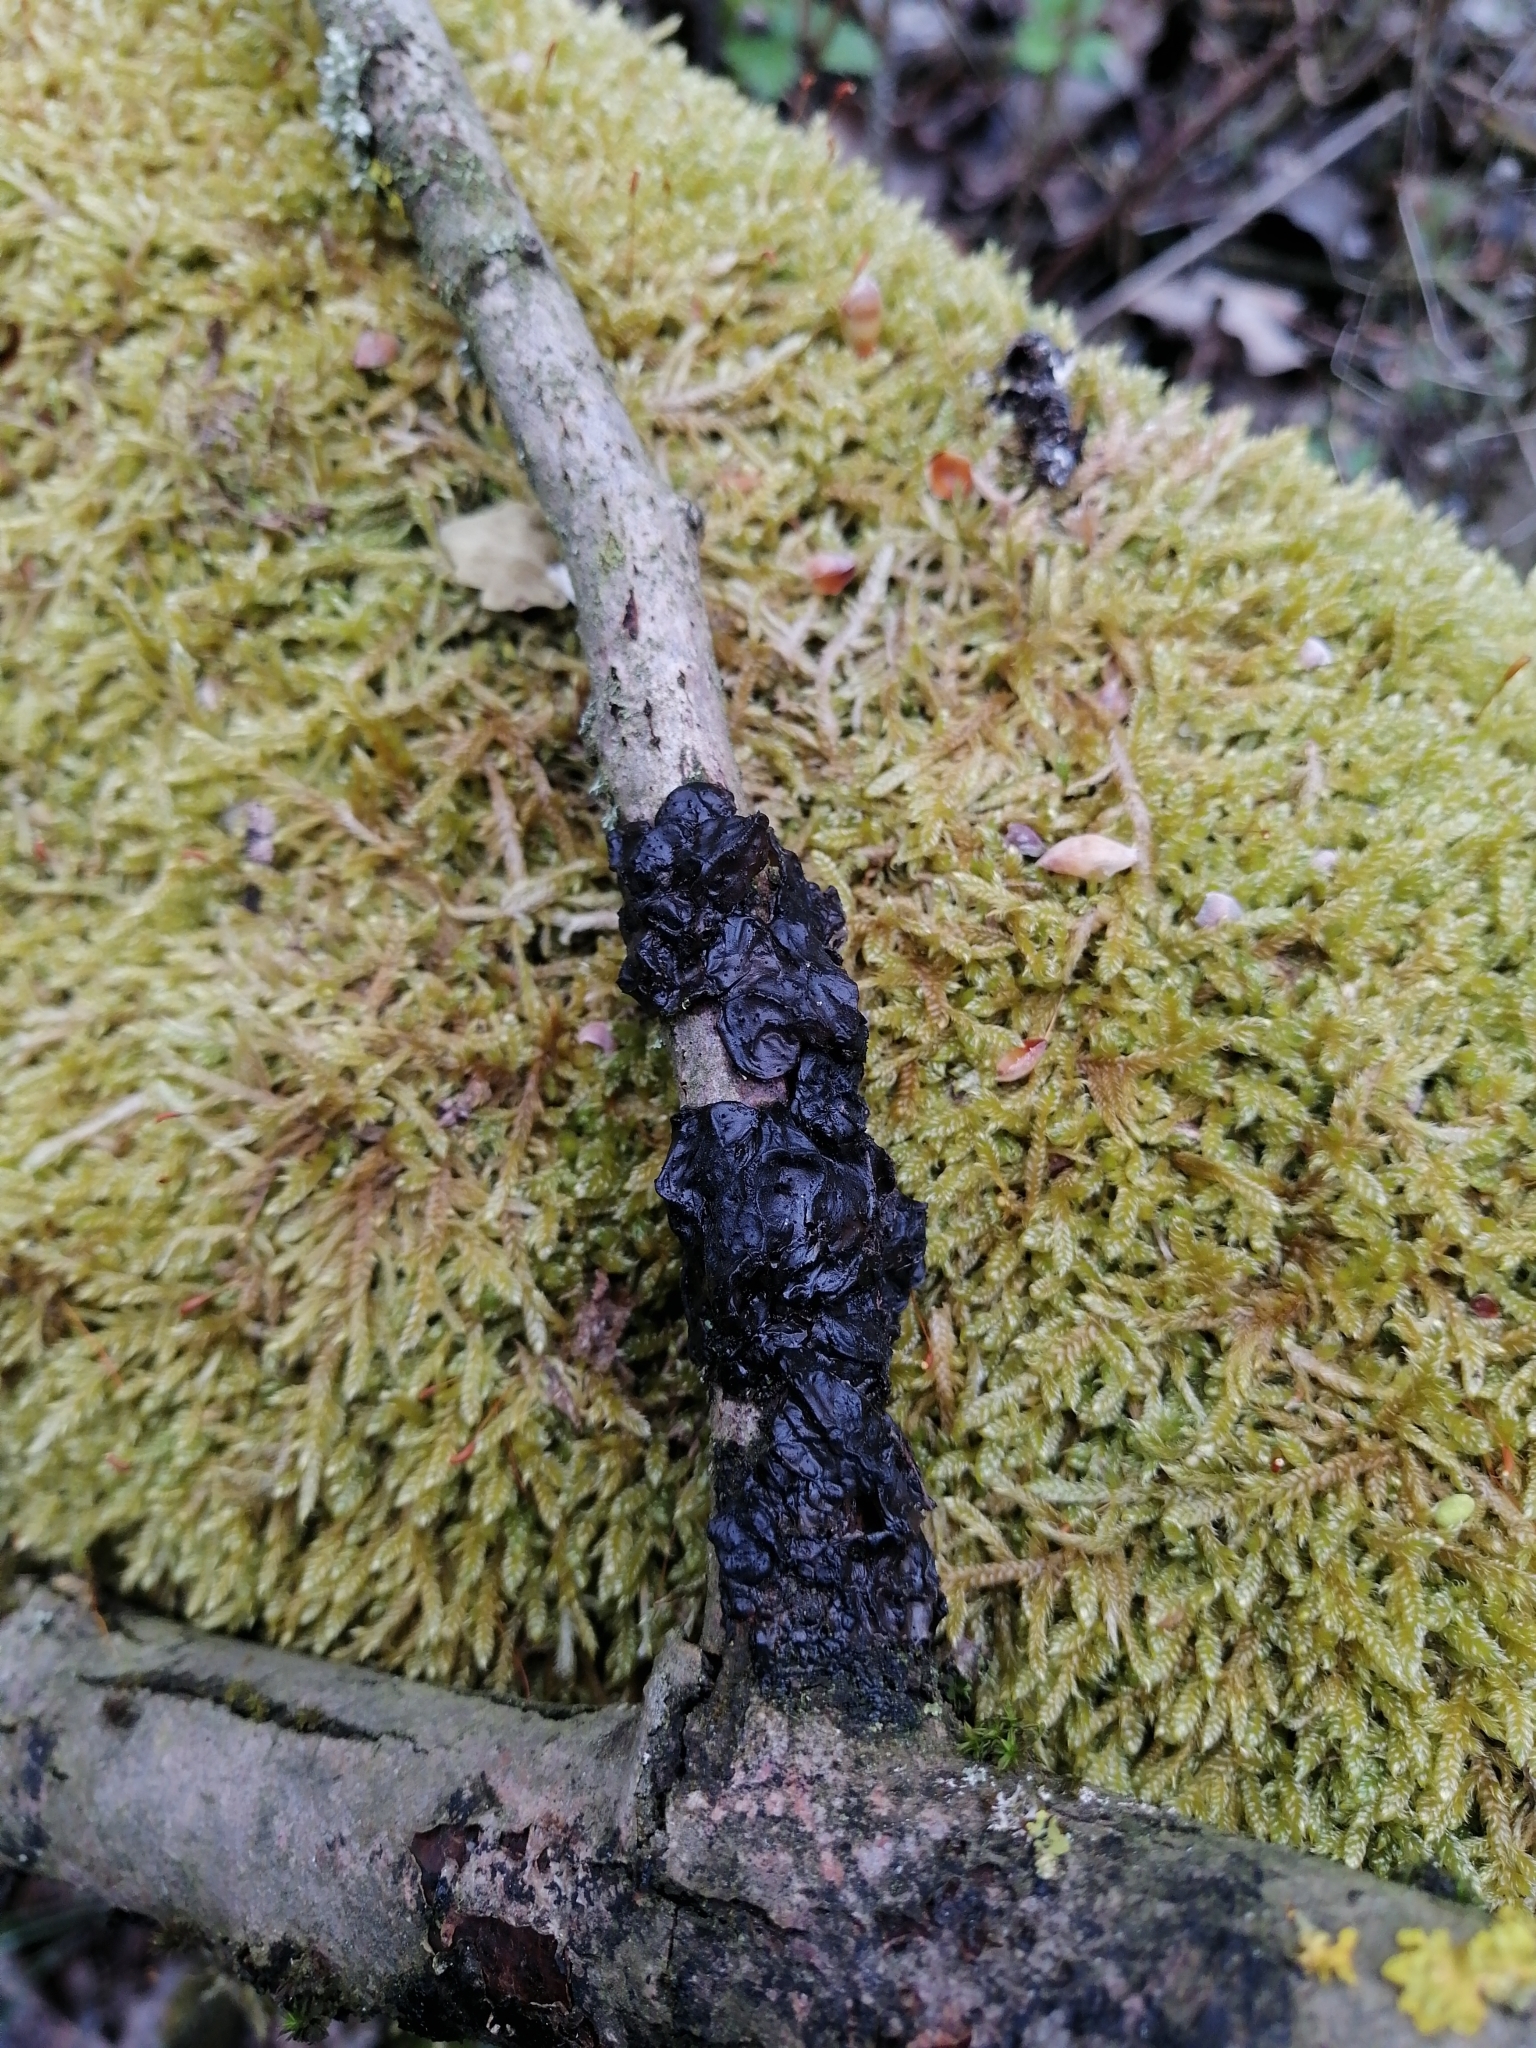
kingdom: Fungi
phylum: Basidiomycota
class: Agaricomycetes
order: Auriculariales
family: Auriculariaceae
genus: Exidia
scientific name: Exidia nigricans
